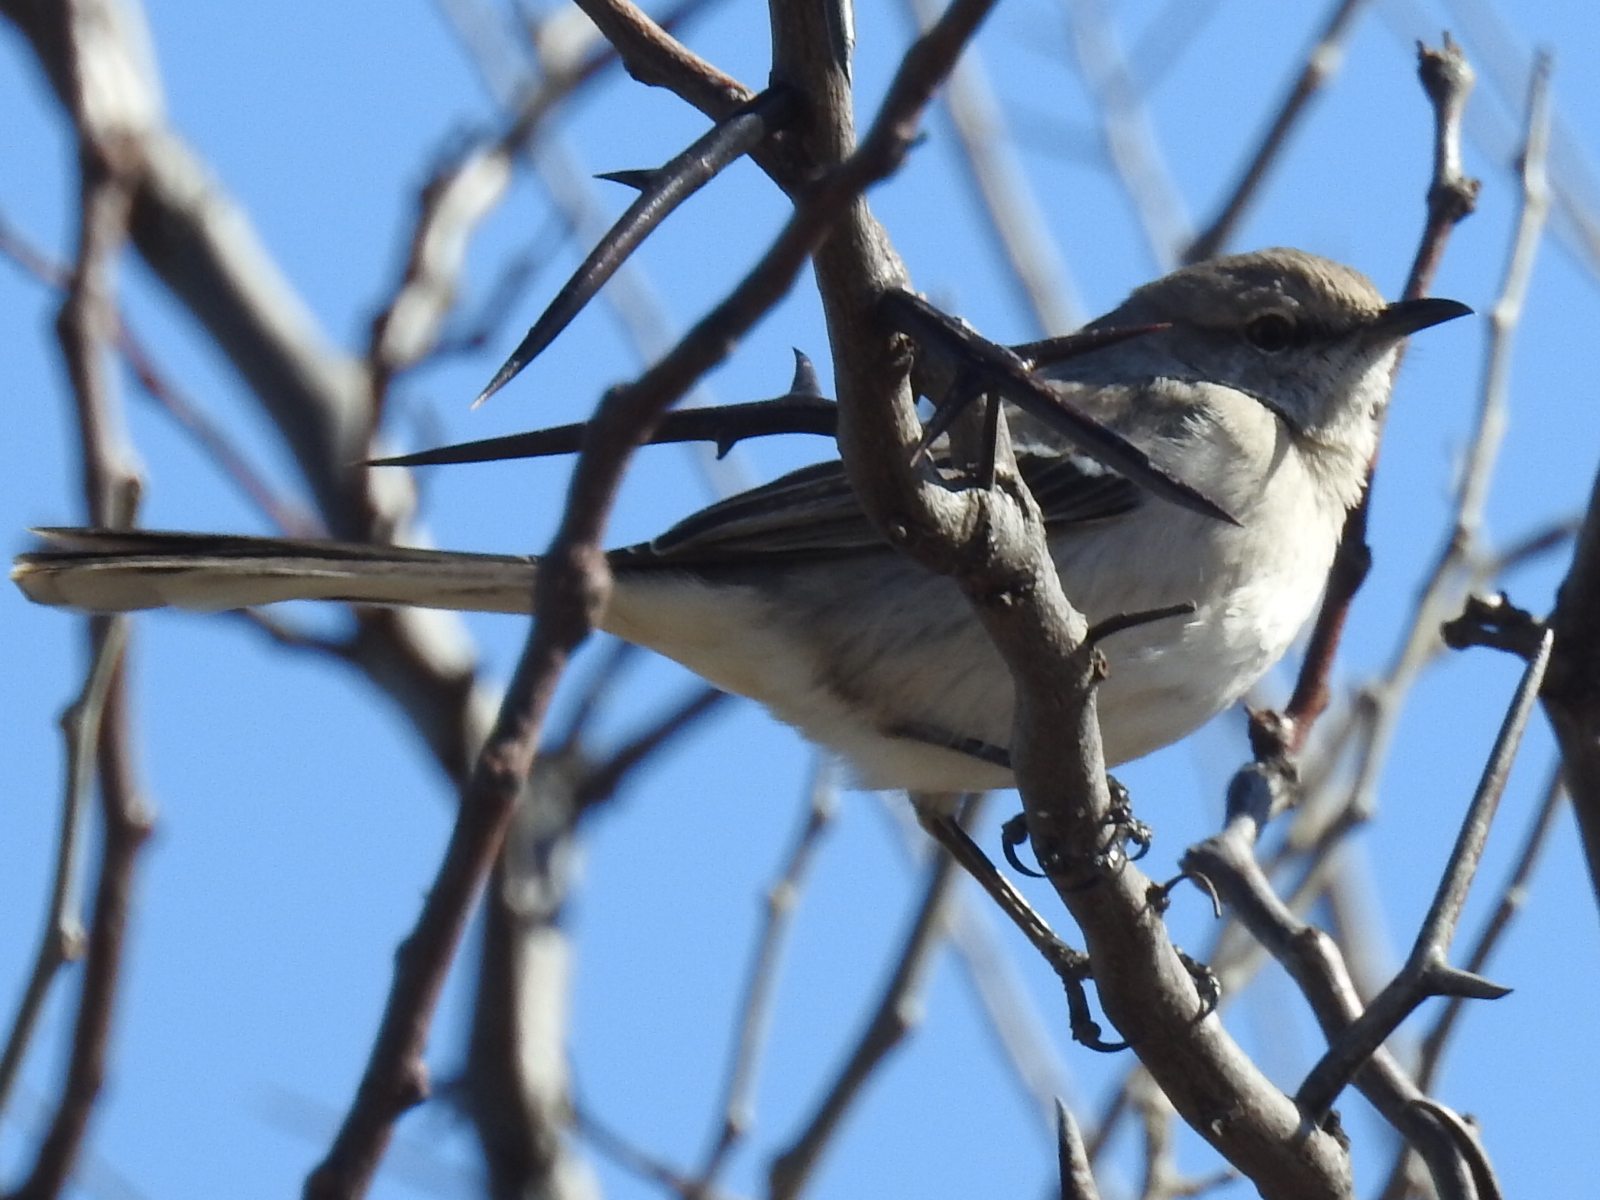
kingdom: Animalia
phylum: Chordata
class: Aves
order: Passeriformes
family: Mimidae
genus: Mimus
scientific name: Mimus polyglottos
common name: Northern mockingbird
